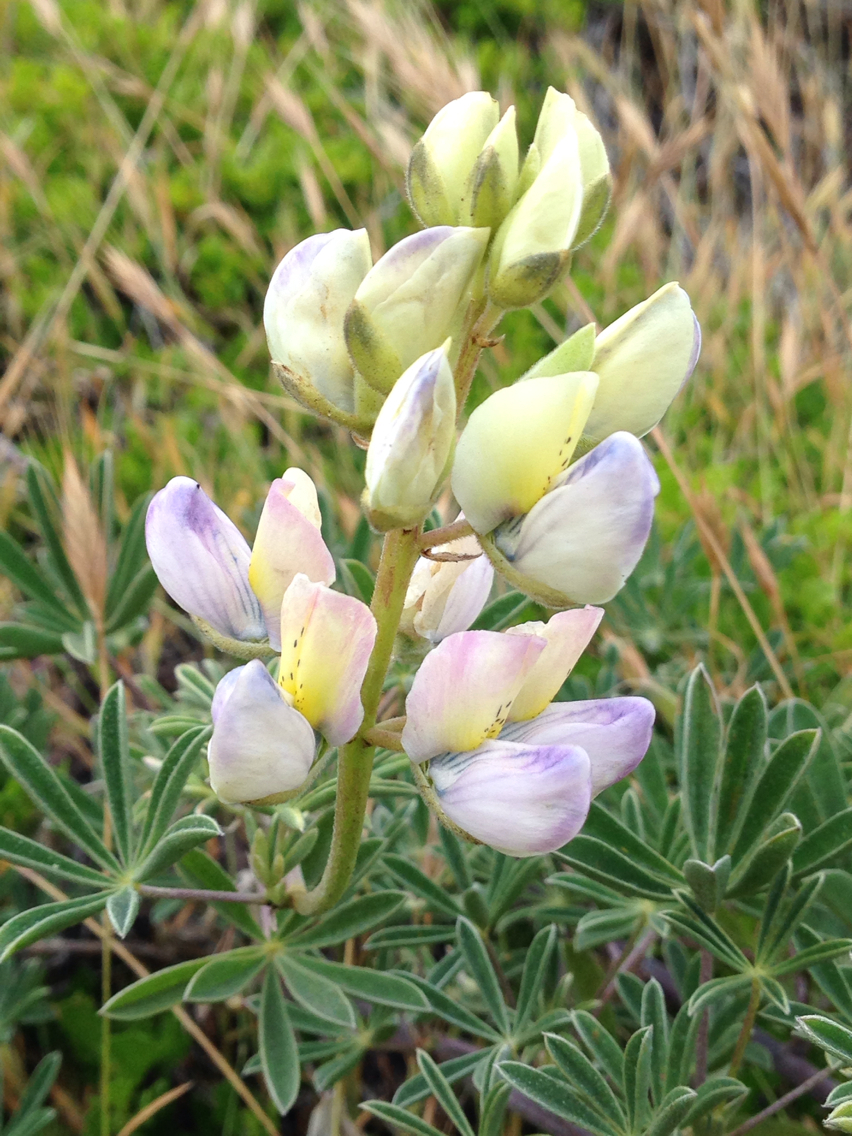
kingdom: Plantae
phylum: Tracheophyta
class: Magnoliopsida
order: Fabales
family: Fabaceae
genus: Lupinus
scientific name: Lupinus variicolor
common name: Lindley's varied lupine
